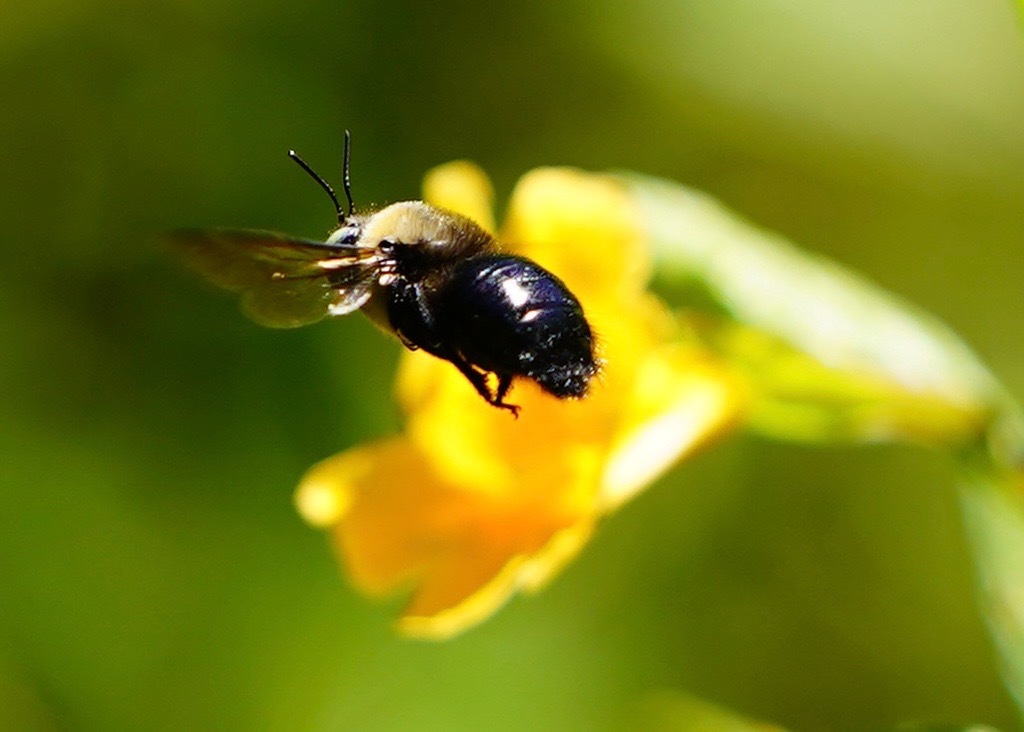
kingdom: Animalia
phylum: Arthropoda
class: Insecta
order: Hymenoptera
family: Apidae
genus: Xylocopa
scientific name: Xylocopa tabaniformis
